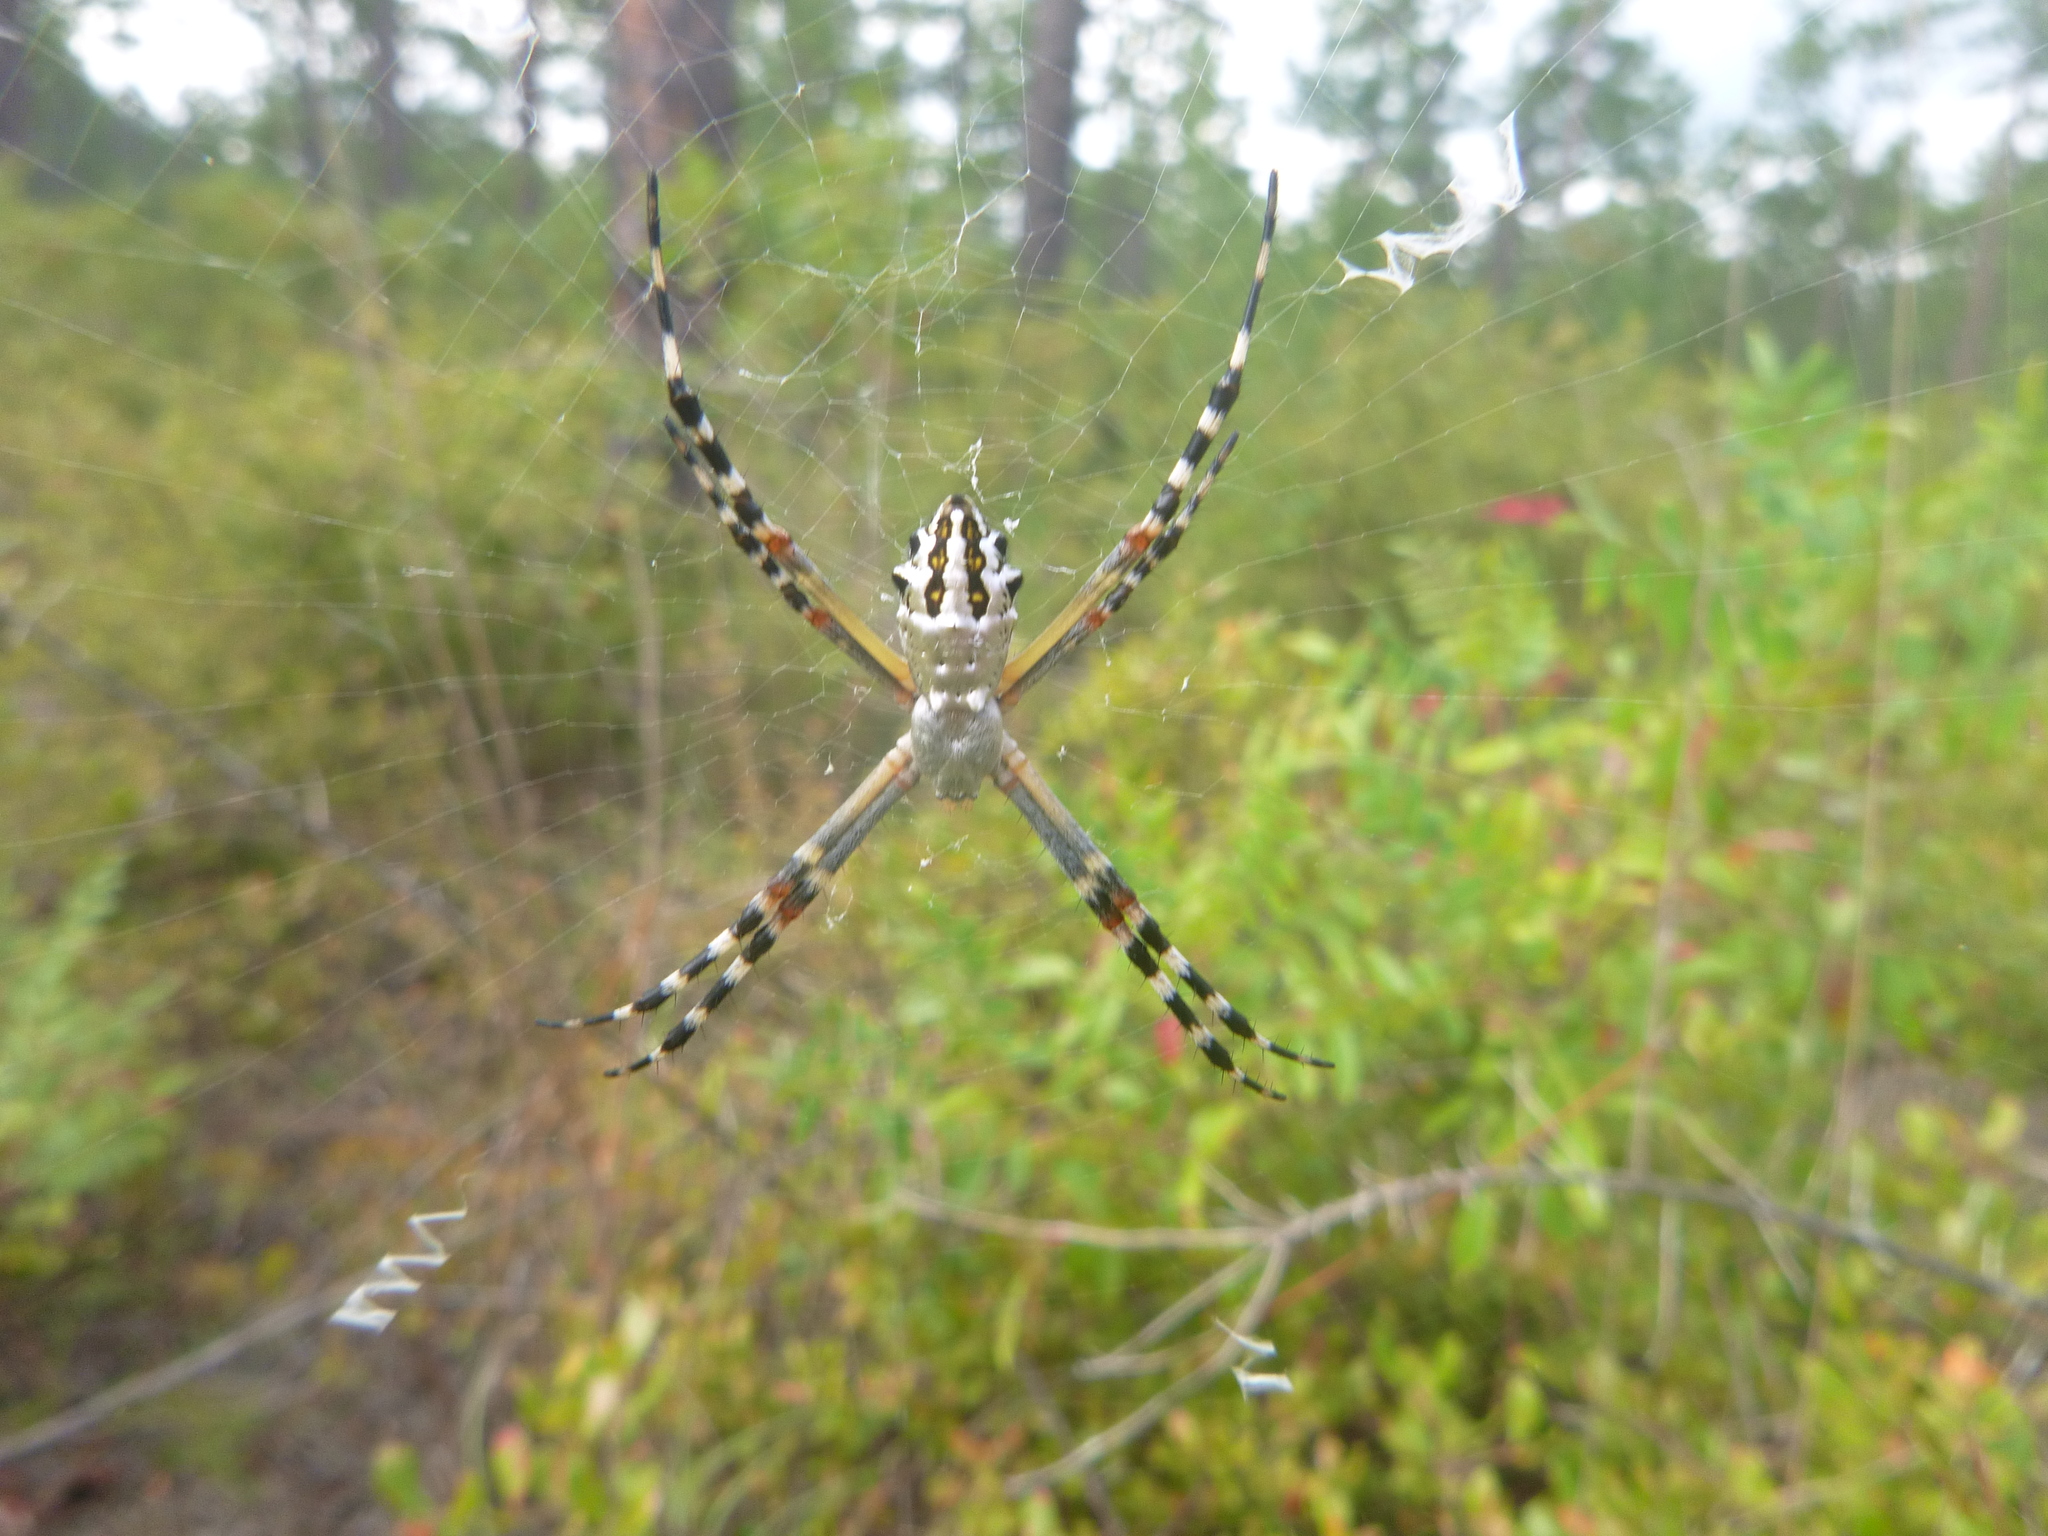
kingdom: Animalia
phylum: Arthropoda
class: Arachnida
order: Araneae
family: Araneidae
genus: Argiope
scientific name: Argiope florida
